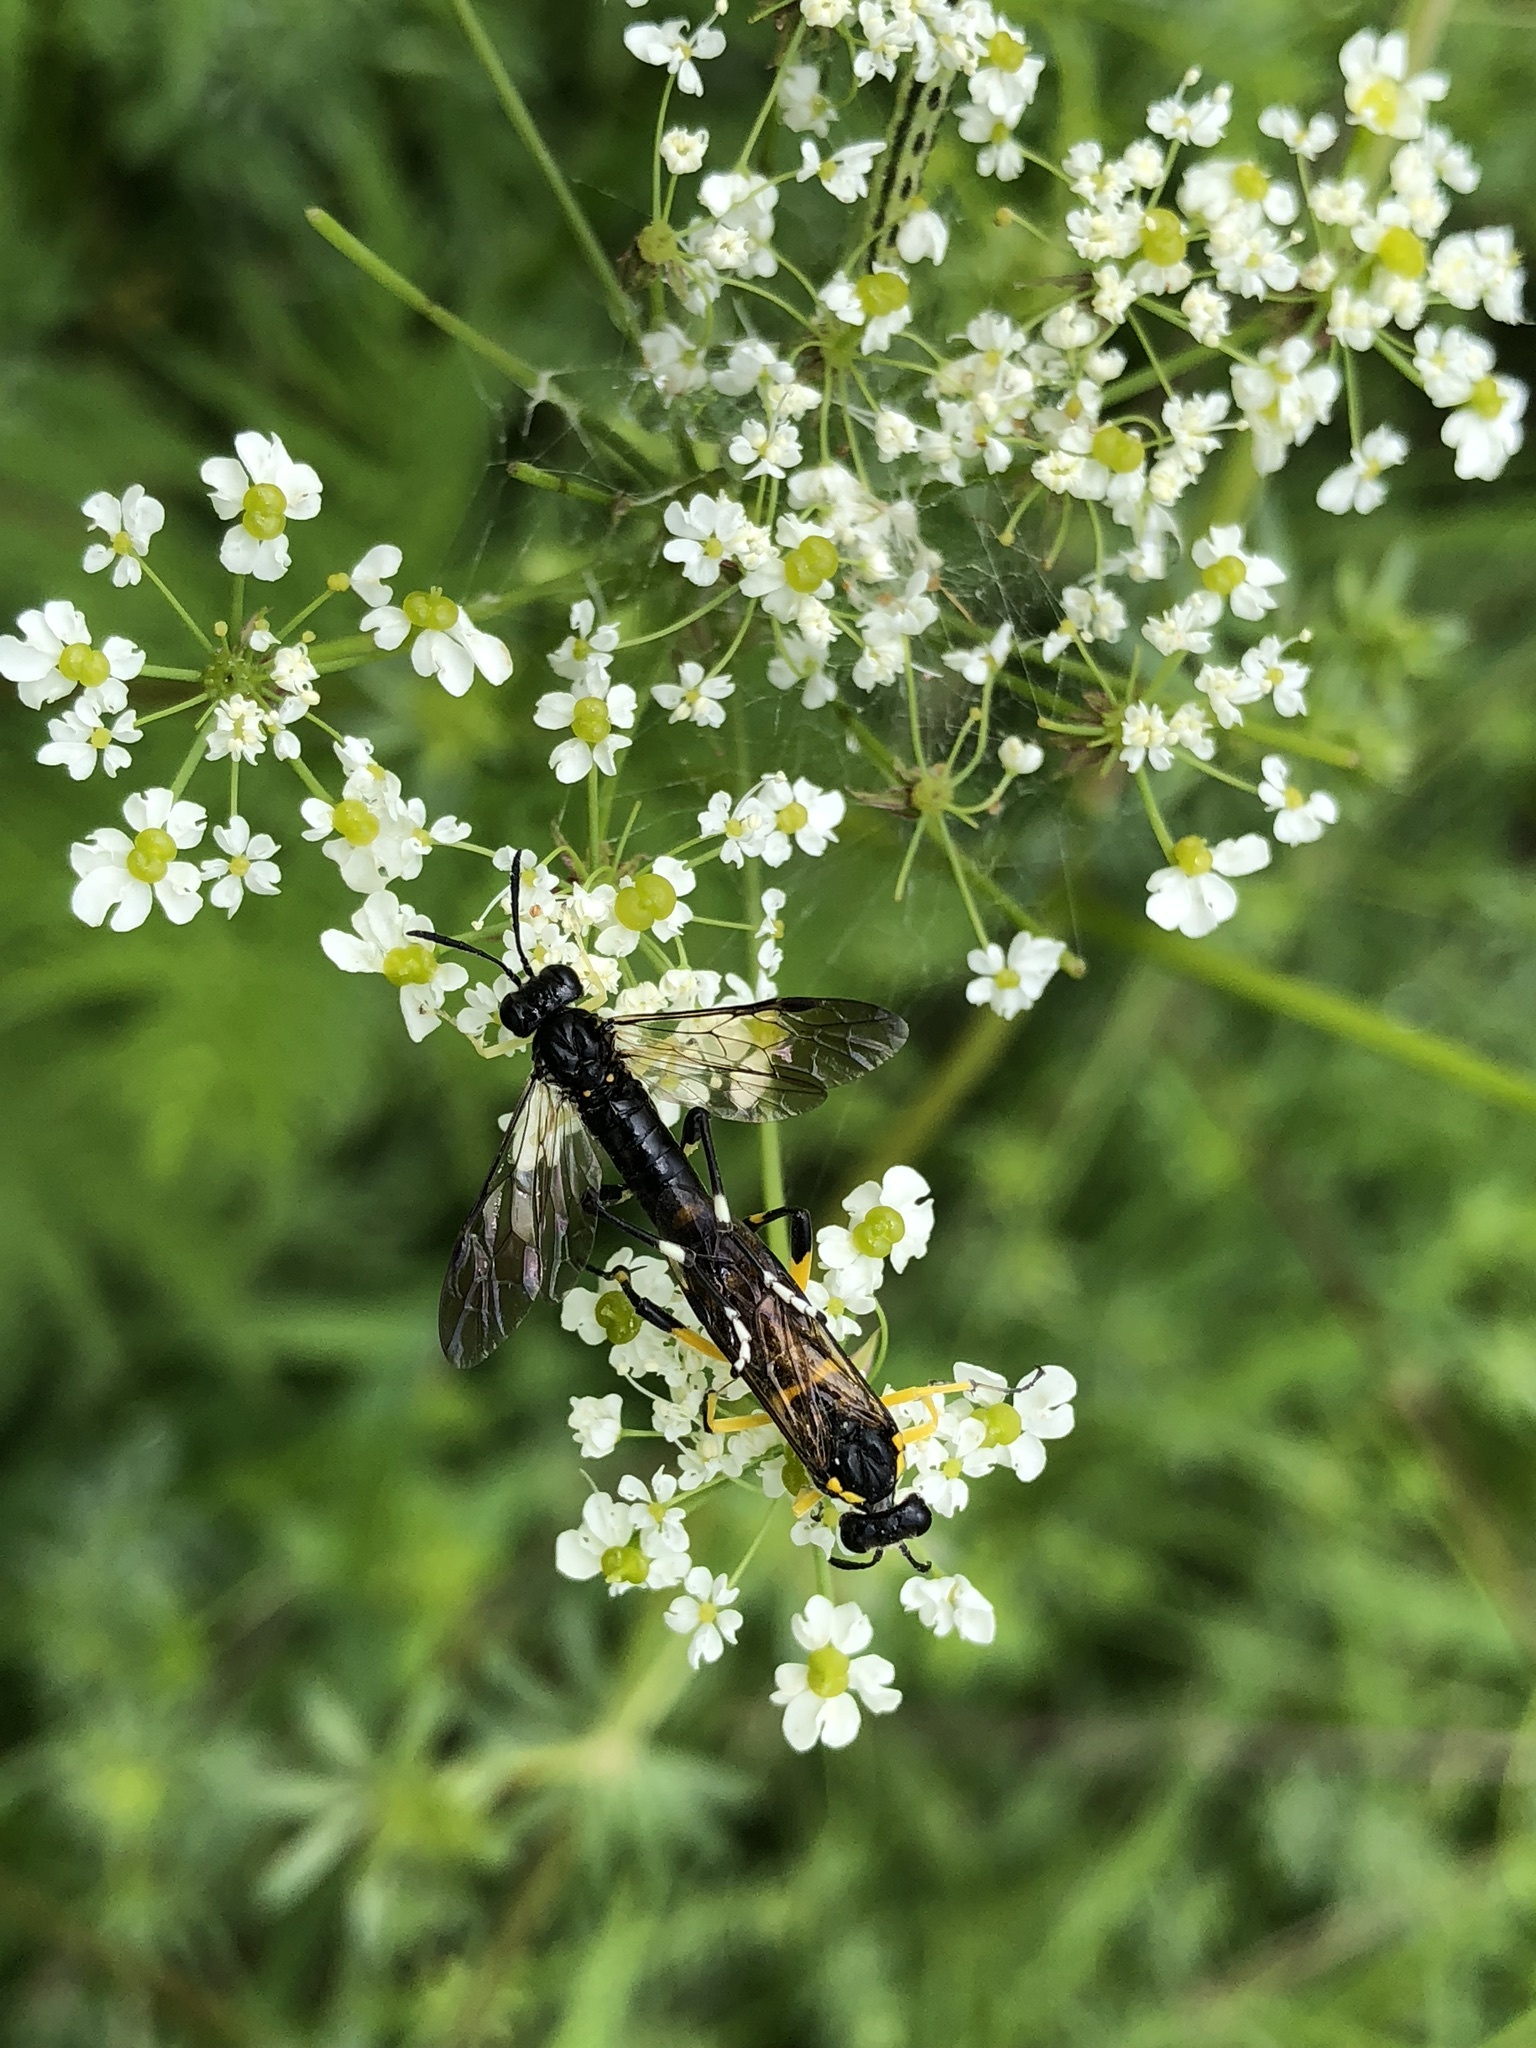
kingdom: Animalia
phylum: Arthropoda
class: Insecta
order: Hymenoptera
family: Tenthredinidae
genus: Macrophya
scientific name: Macrophya montana
